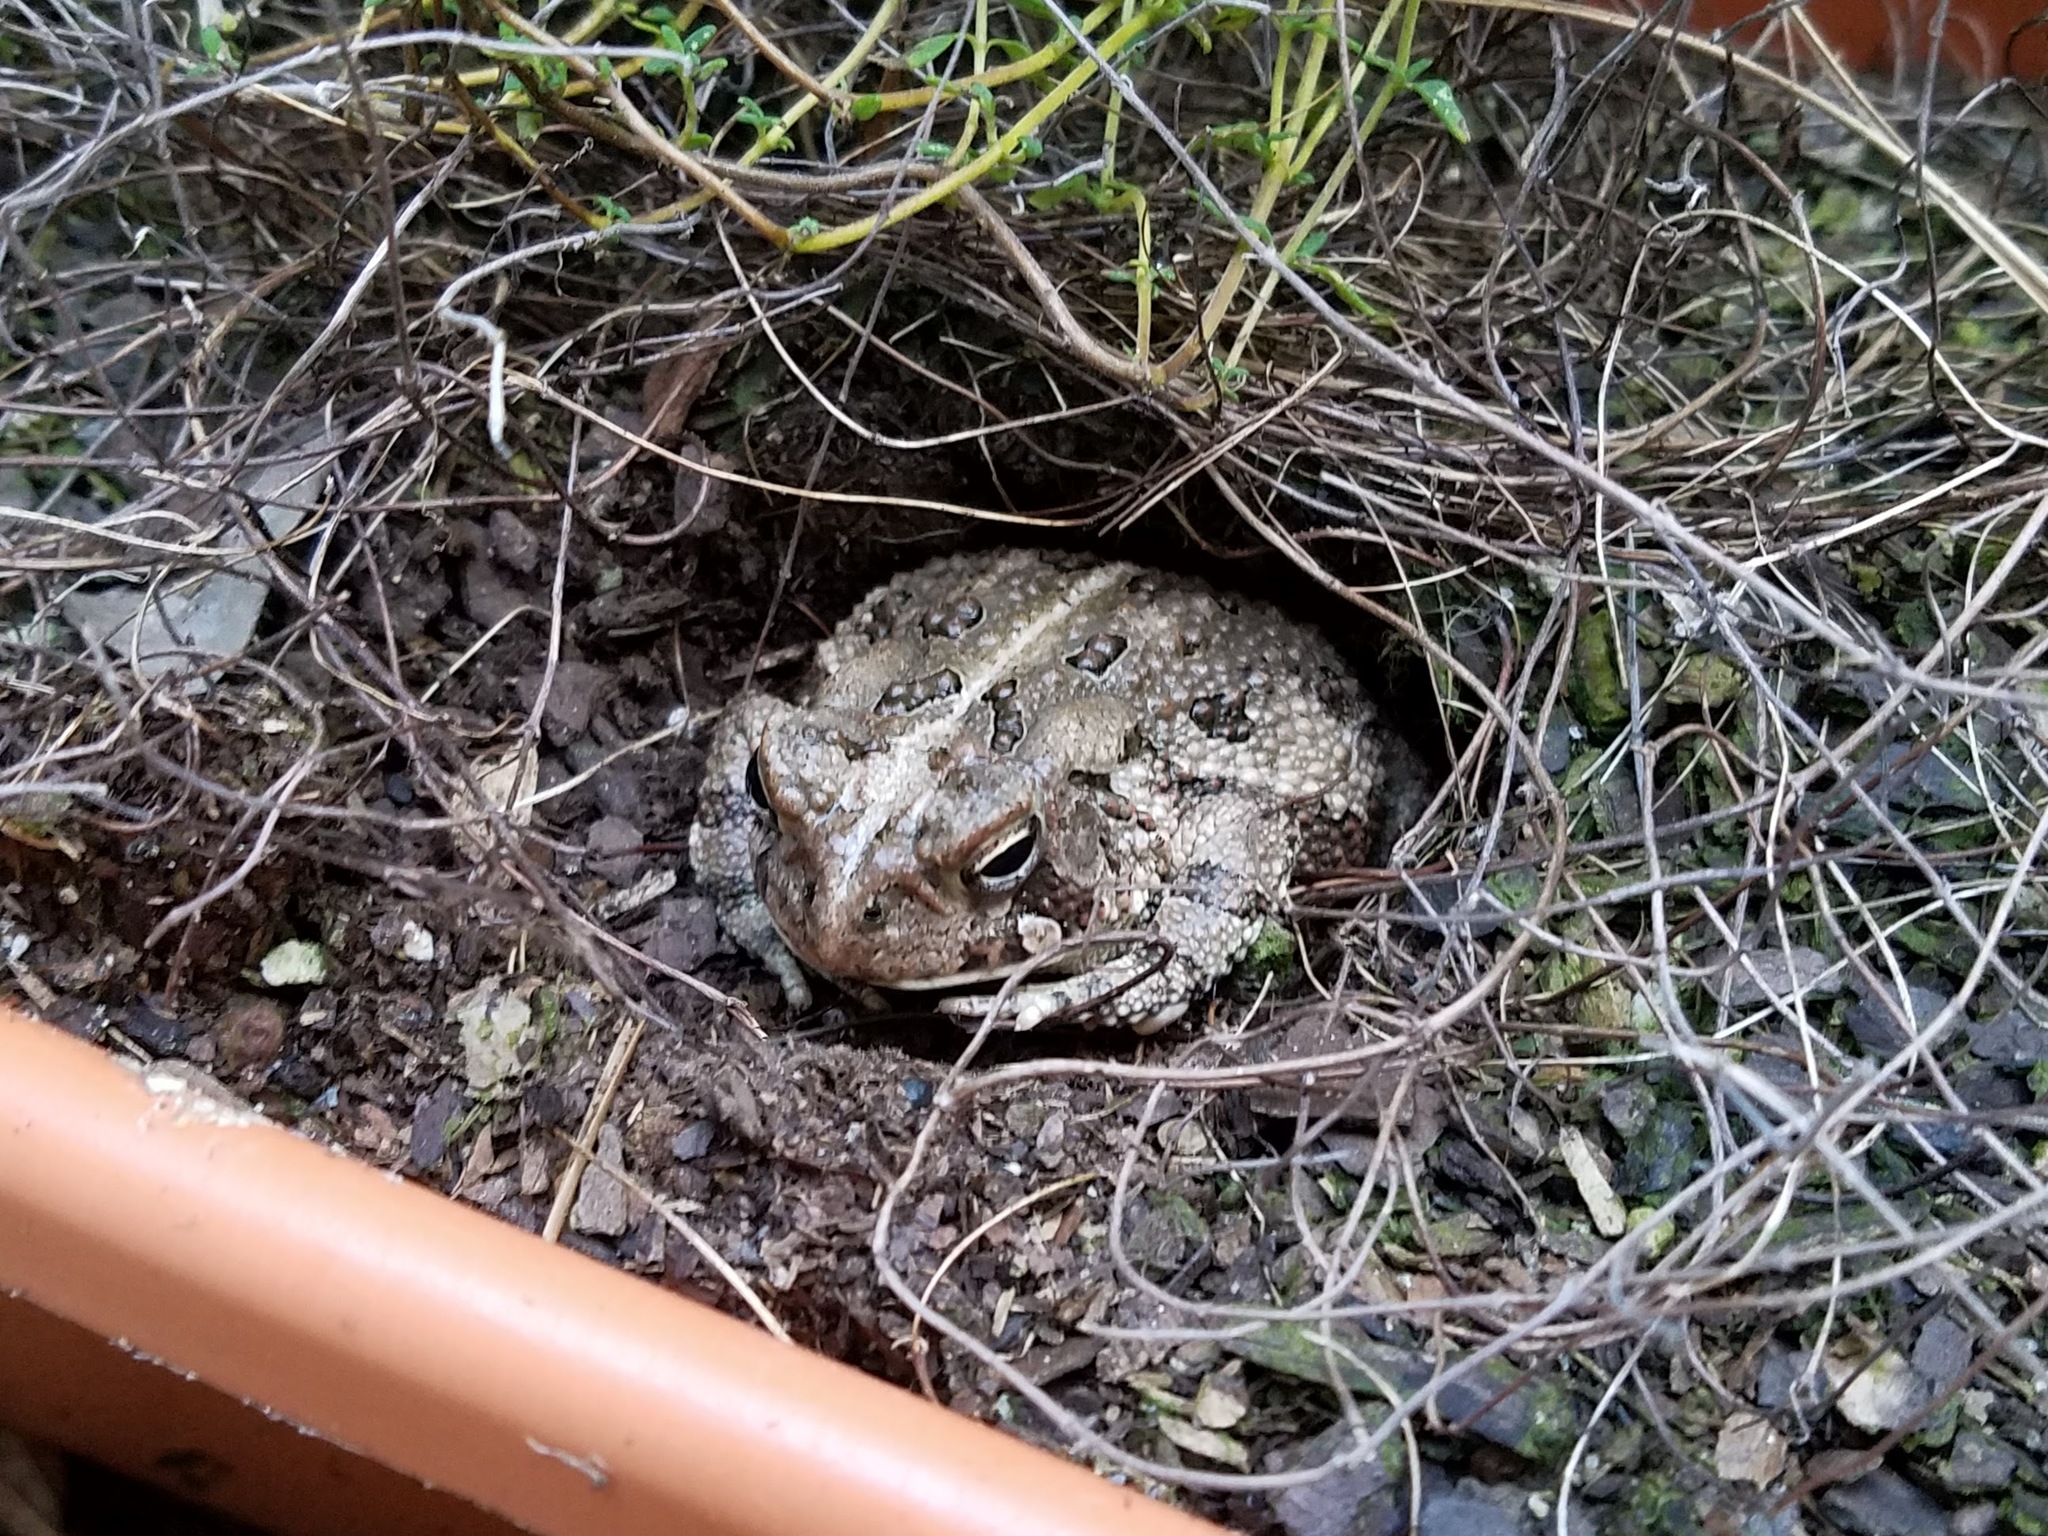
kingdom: Animalia
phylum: Chordata
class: Amphibia
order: Anura
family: Bufonidae
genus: Anaxyrus
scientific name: Anaxyrus fowleri
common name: Fowler's toad
